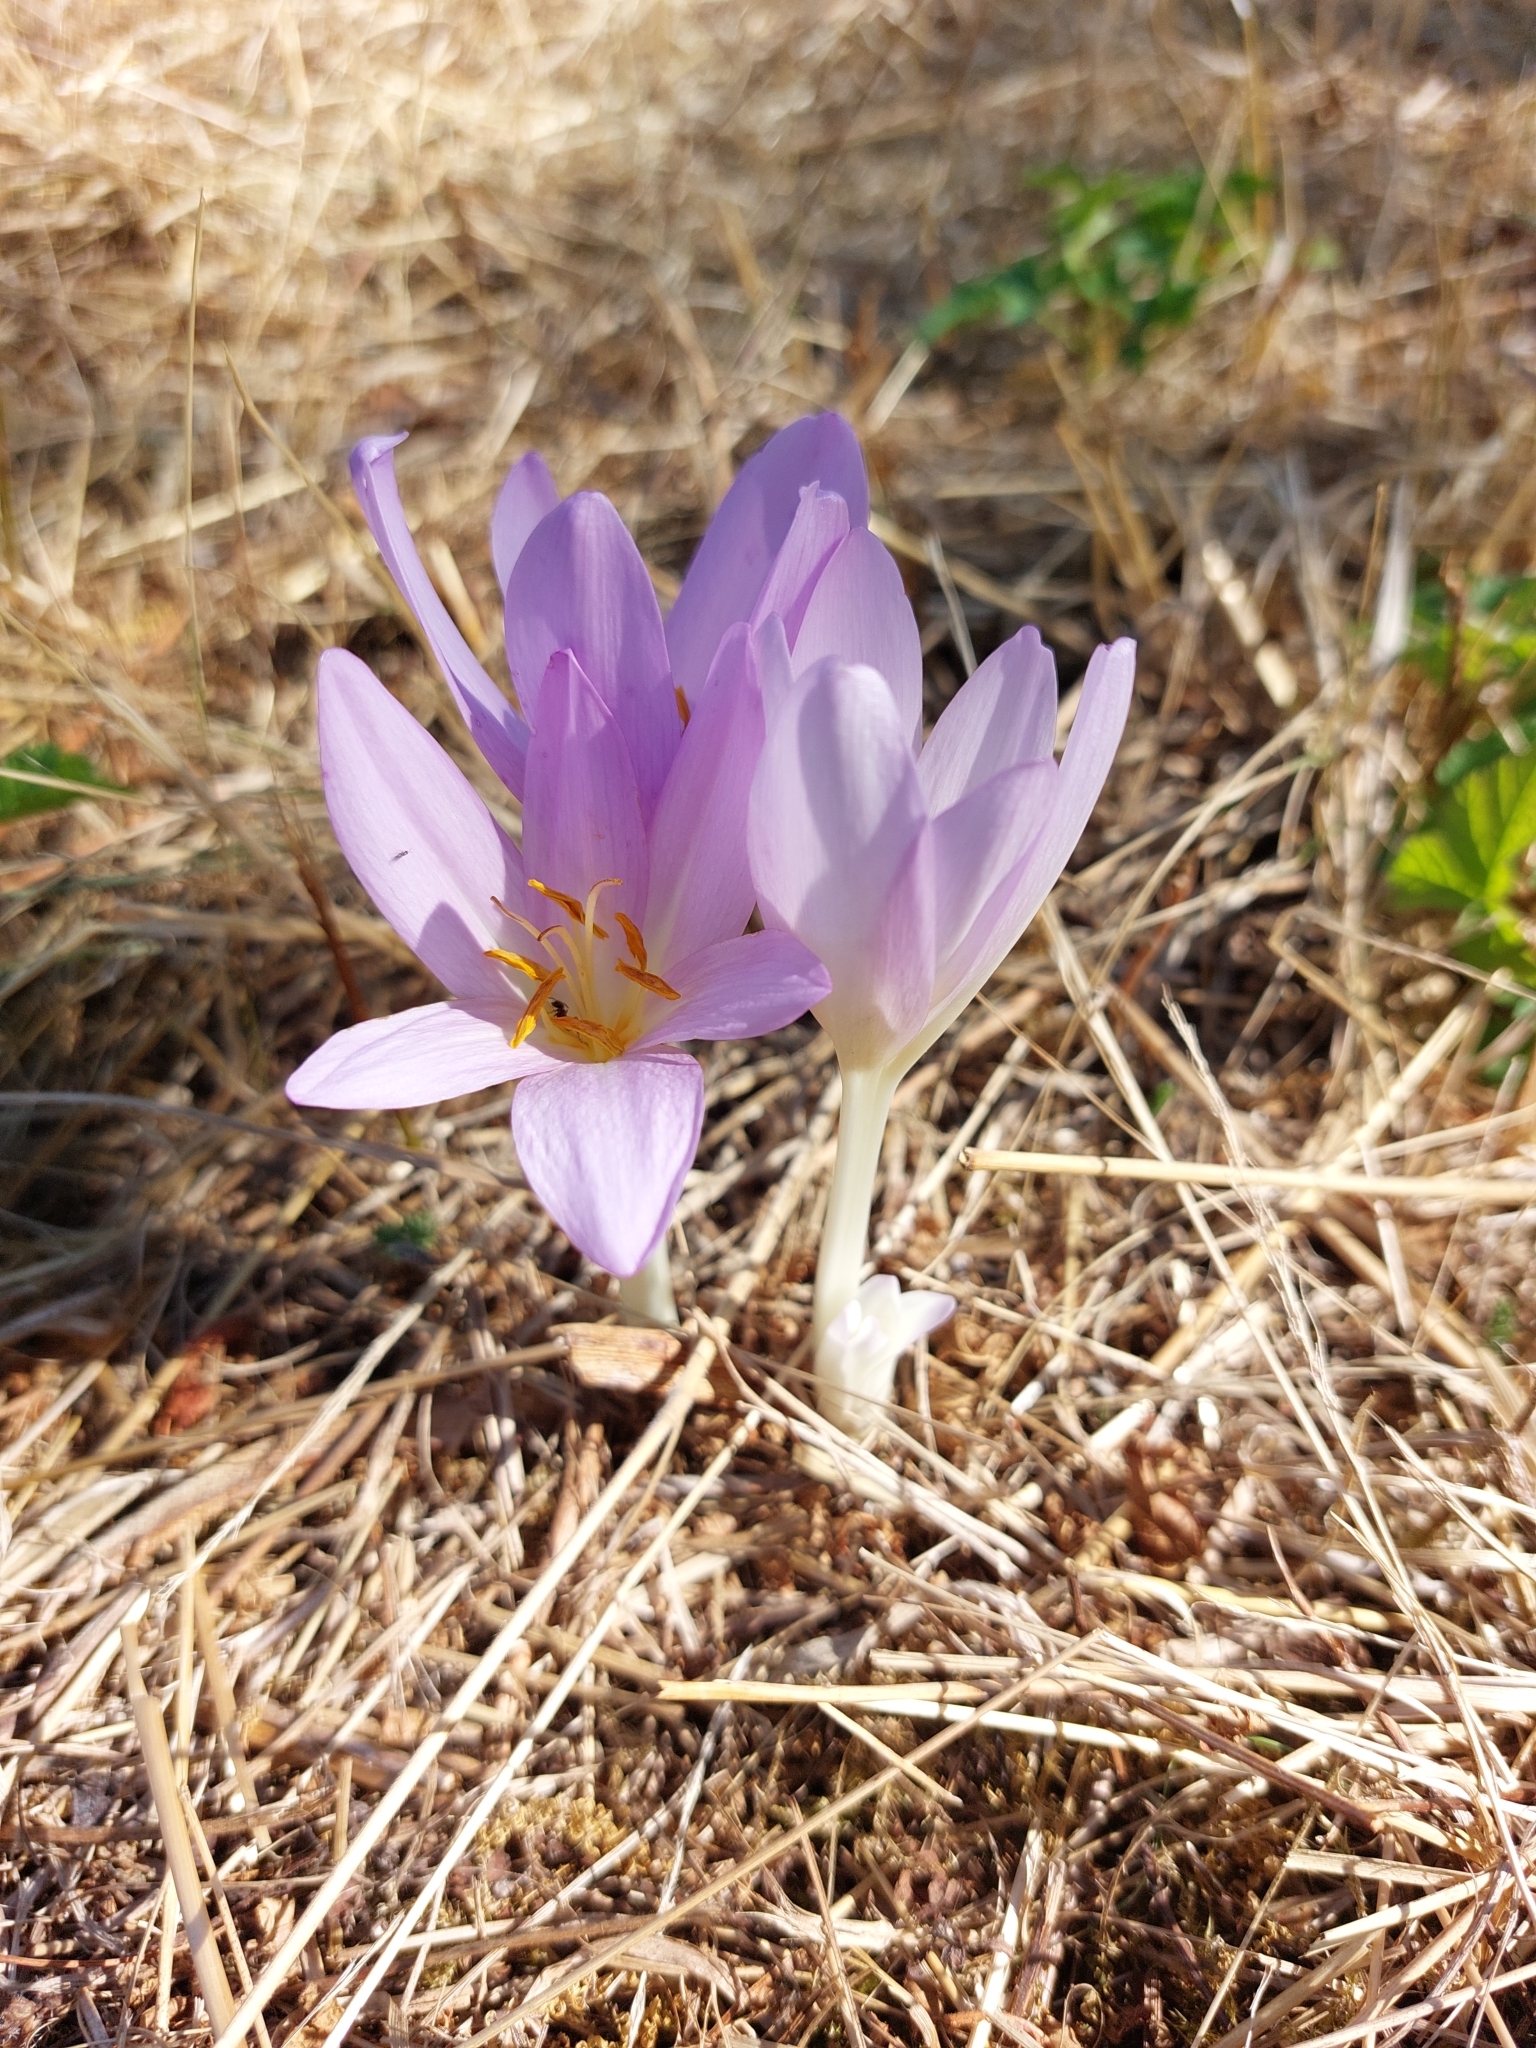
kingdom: Plantae
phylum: Tracheophyta
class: Liliopsida
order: Liliales
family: Colchicaceae
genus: Colchicum
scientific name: Colchicum autumnale
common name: Autumn crocus
